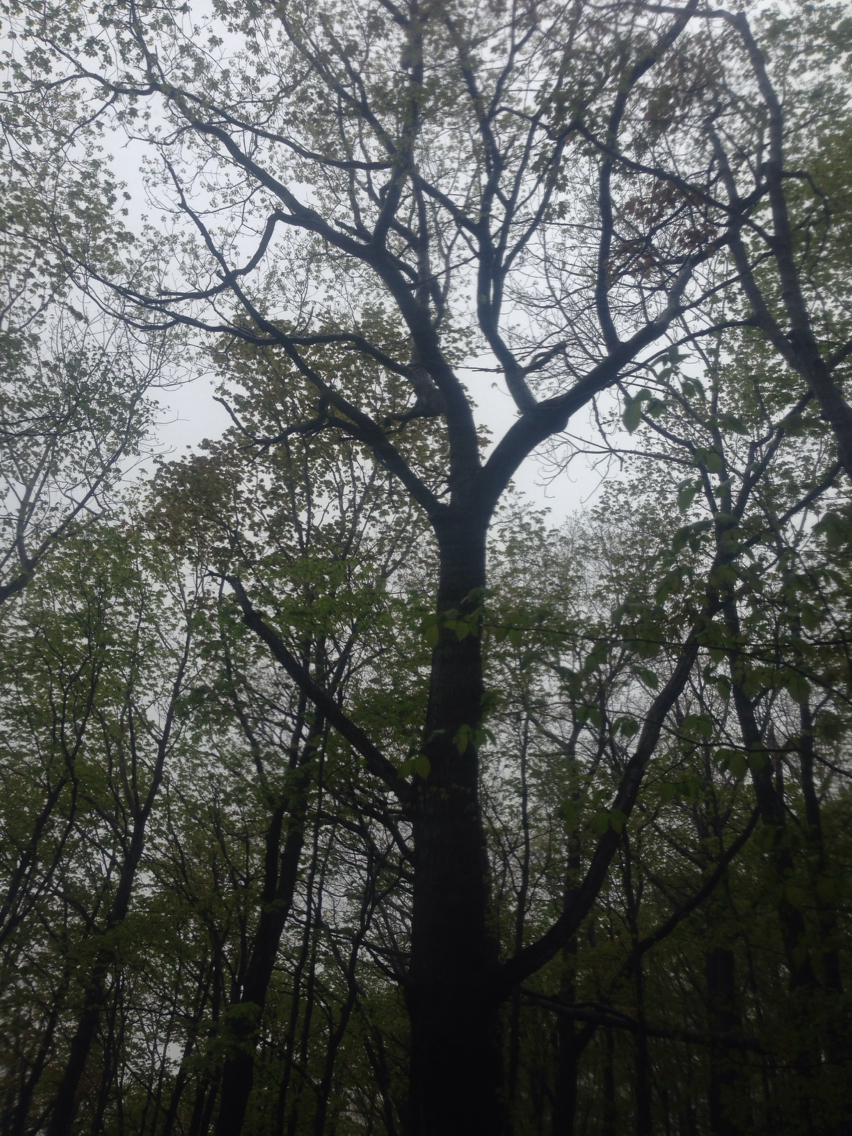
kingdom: Plantae
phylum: Tracheophyta
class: Magnoliopsida
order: Fagales
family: Fagaceae
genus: Quercus
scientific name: Quercus rubra
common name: Red oak
